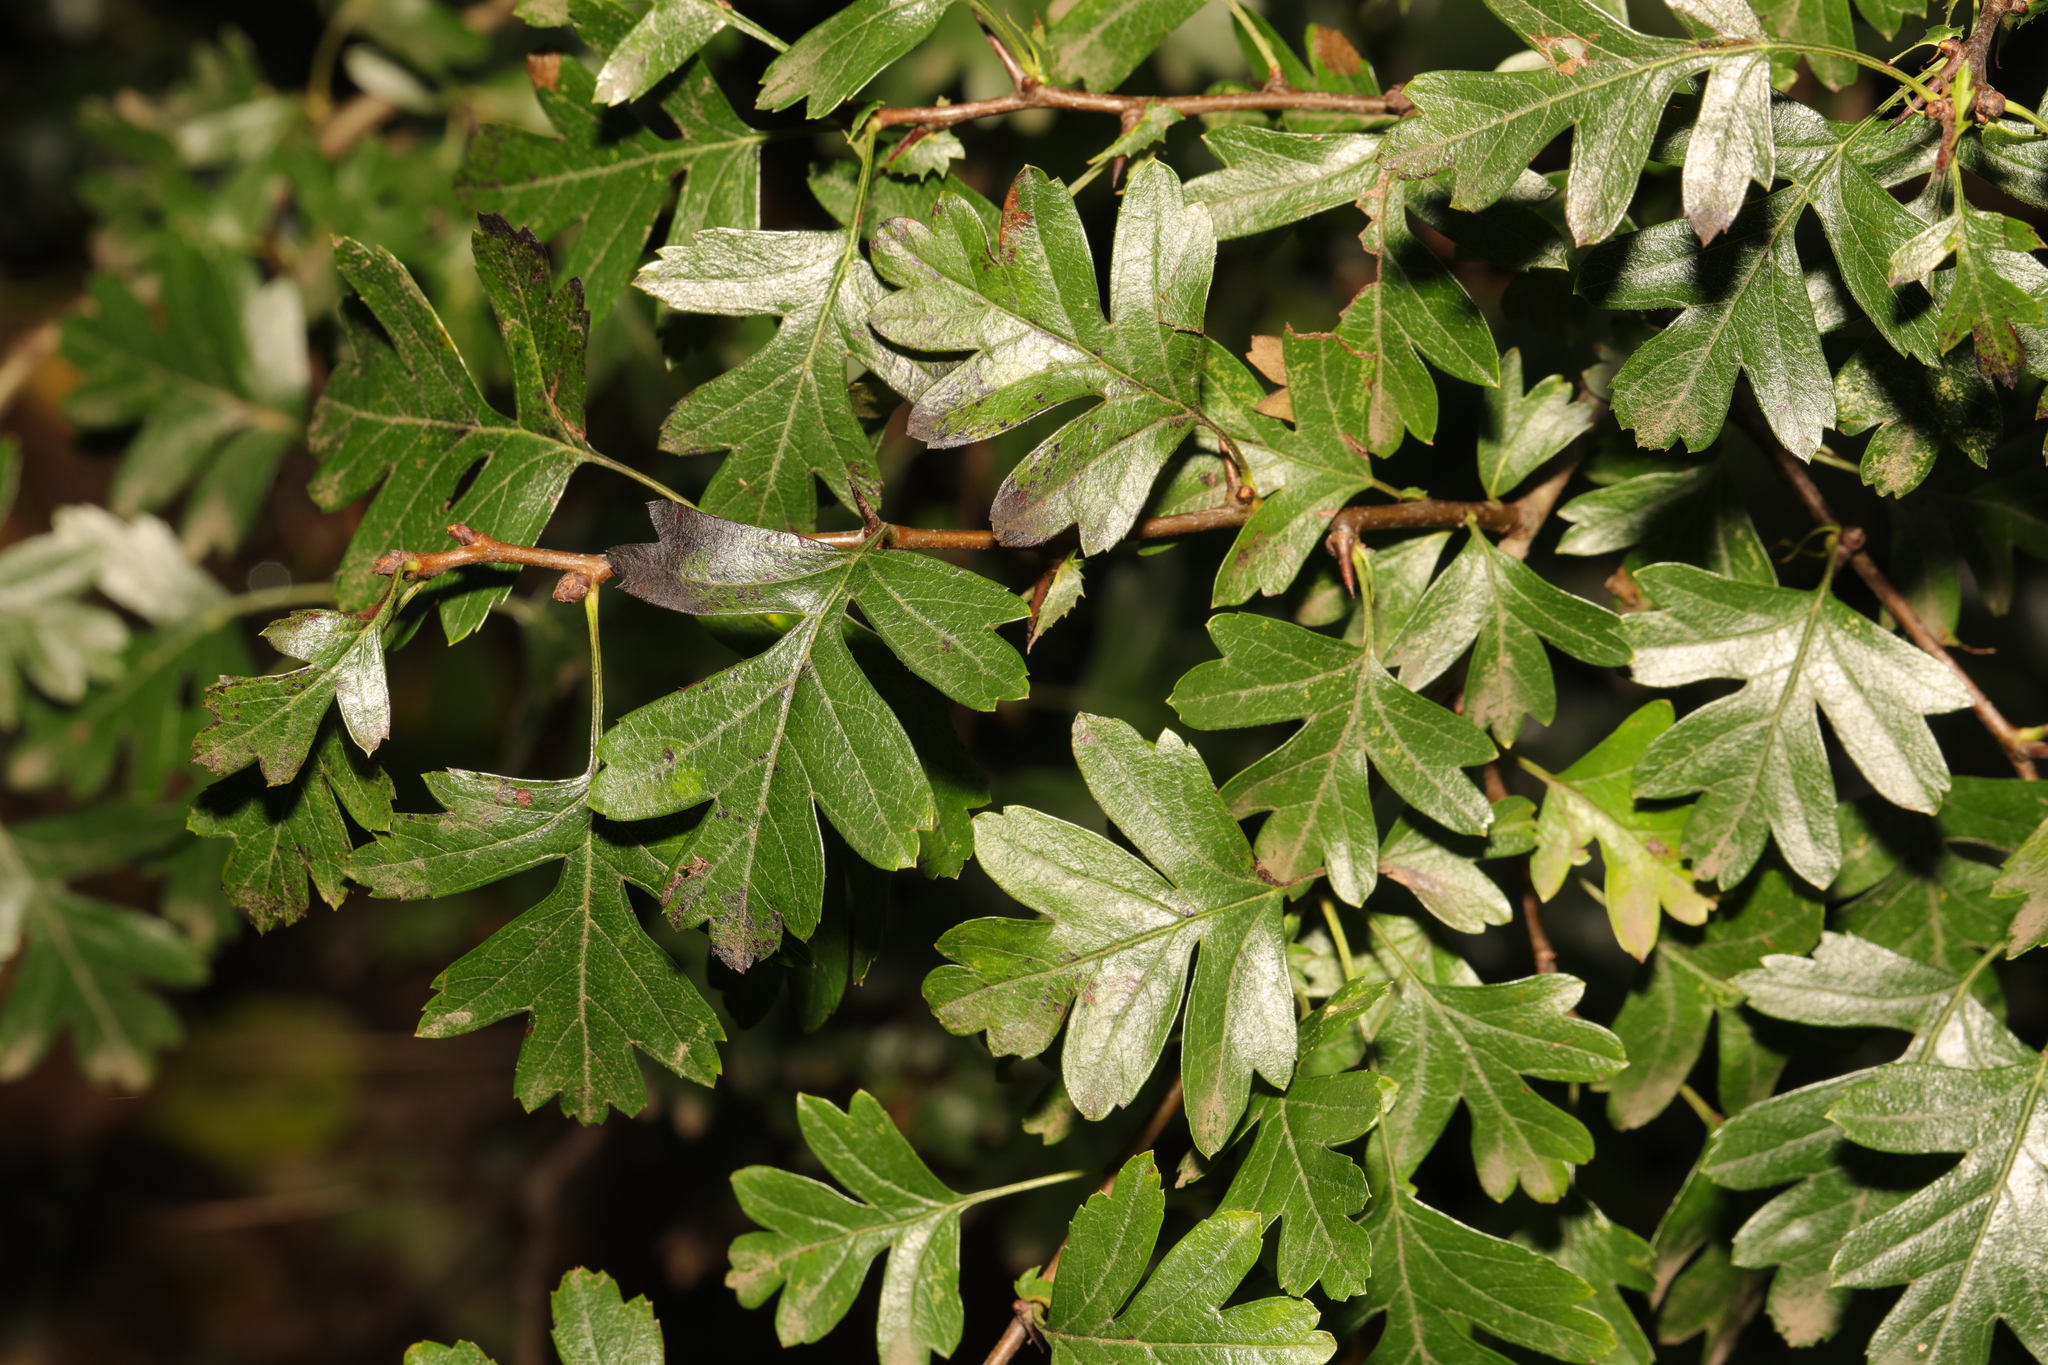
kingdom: Plantae
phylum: Tracheophyta
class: Magnoliopsida
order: Rosales
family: Rosaceae
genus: Crataegus
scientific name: Crataegus monogyna
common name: Hawthorn
